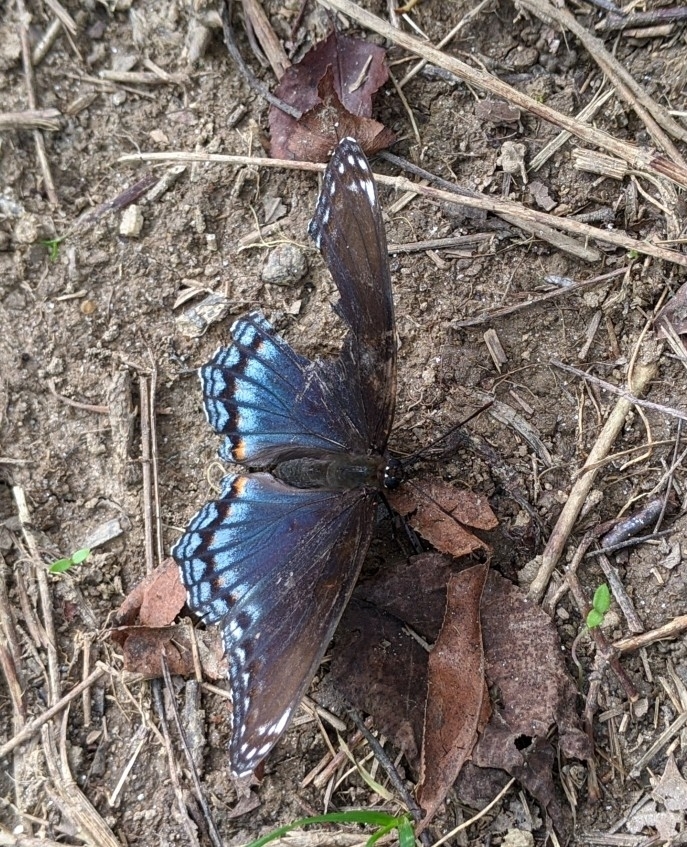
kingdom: Animalia
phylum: Arthropoda
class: Insecta
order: Lepidoptera
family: Nymphalidae
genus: Limenitis
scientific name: Limenitis arthemis
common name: Red-spotted admiral
